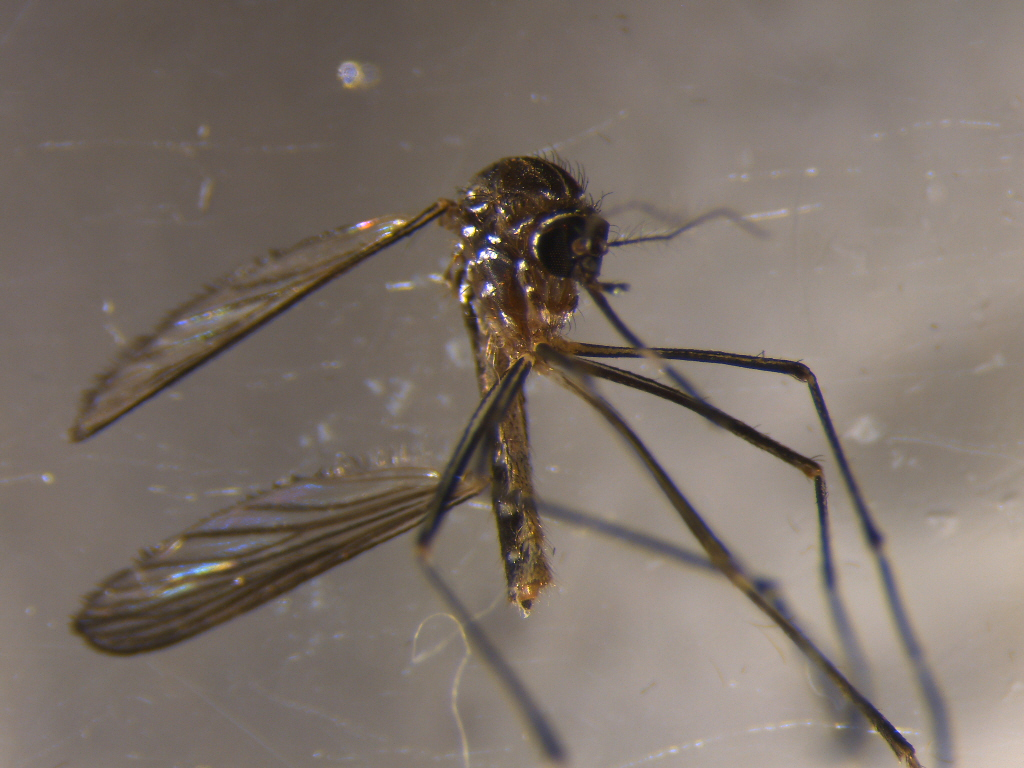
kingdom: Animalia
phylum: Arthropoda
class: Insecta
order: Diptera
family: Culicidae
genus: Aedes
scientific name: Aedes notoscriptus
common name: Australian backyard mosquito
